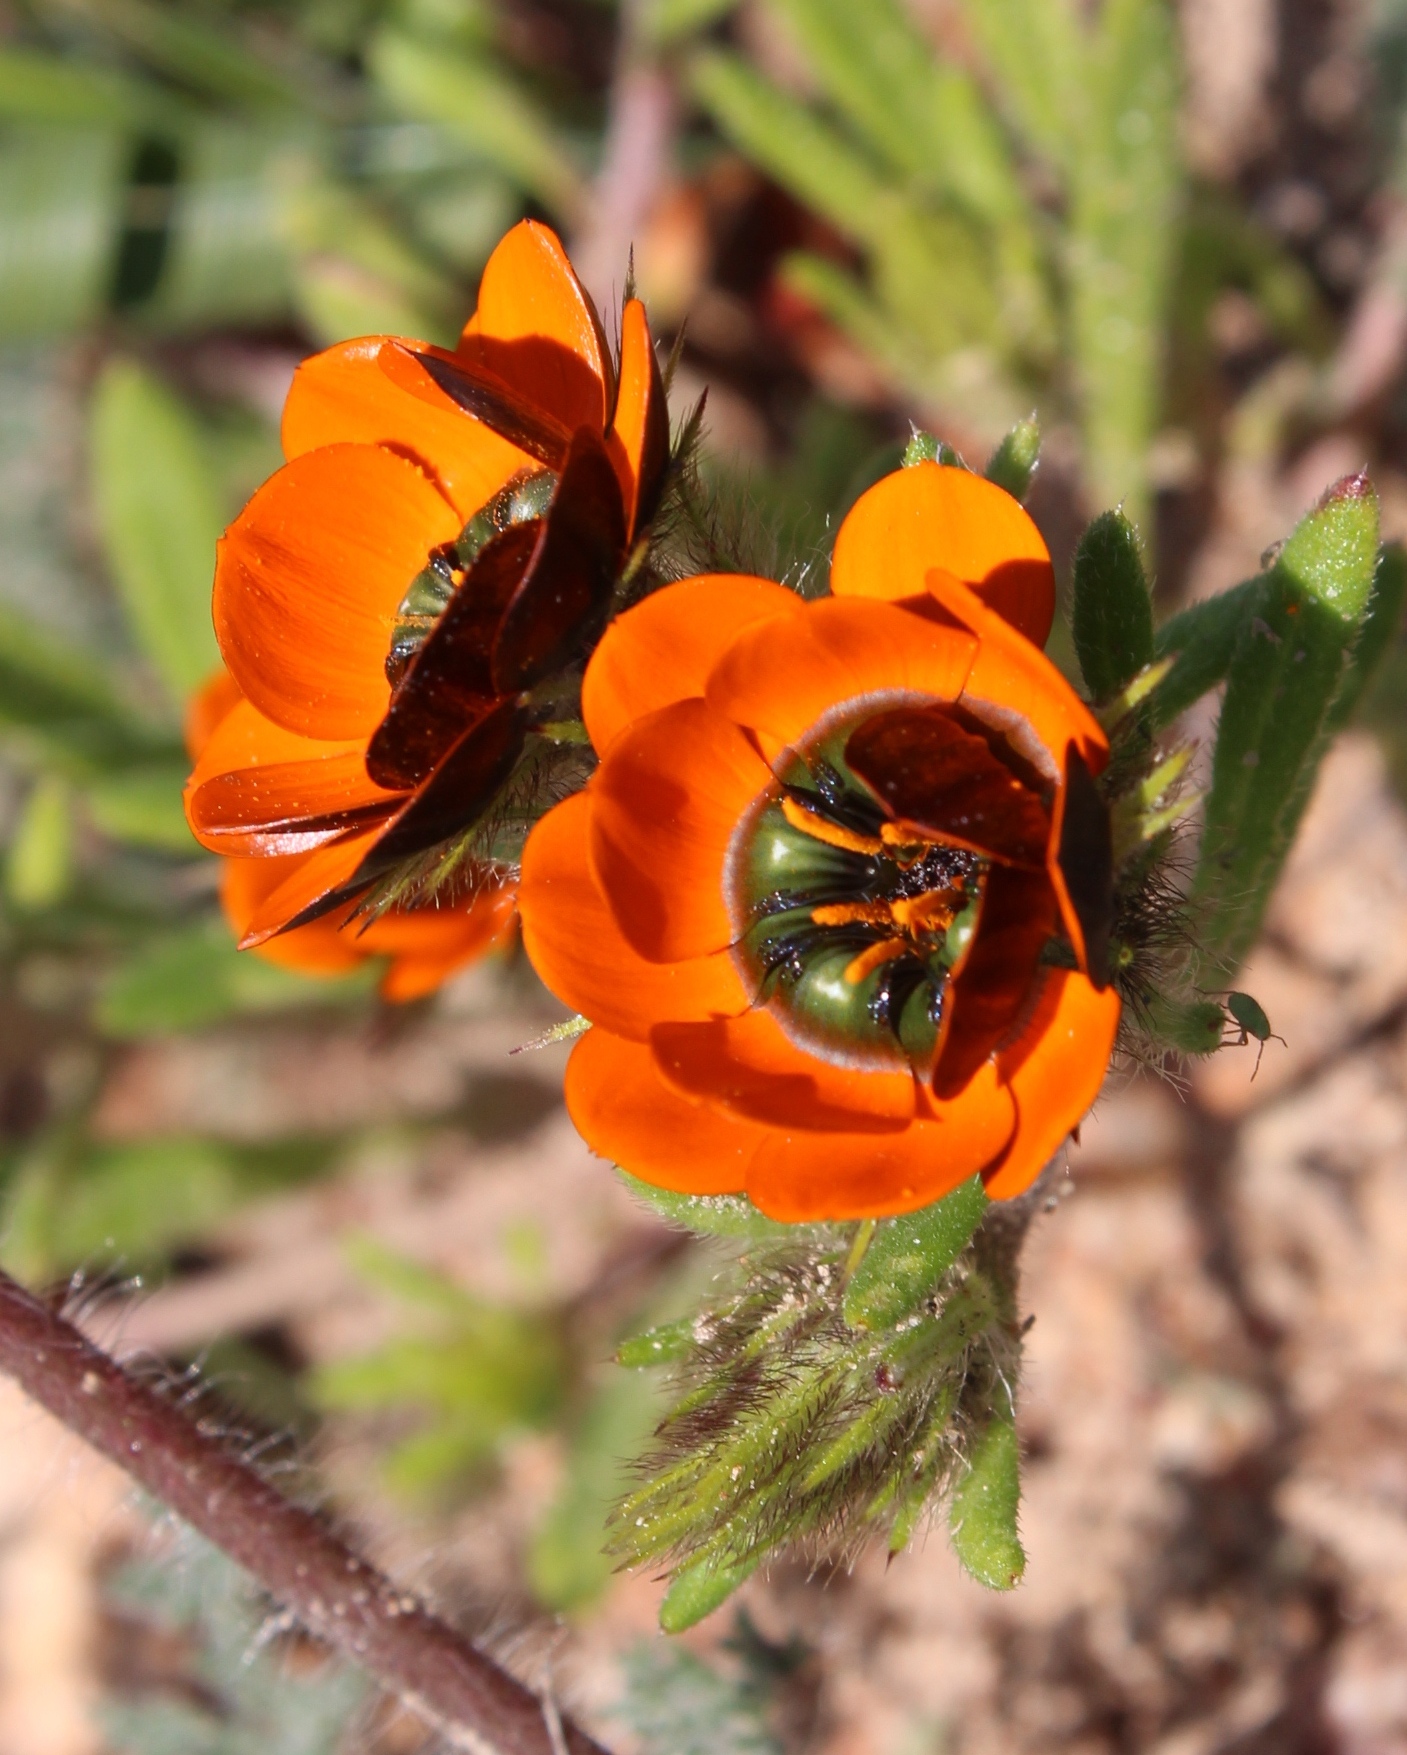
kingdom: Plantae
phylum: Tracheophyta
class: Magnoliopsida
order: Asterales
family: Asteraceae
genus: Gorteria
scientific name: Gorteria diffusa
